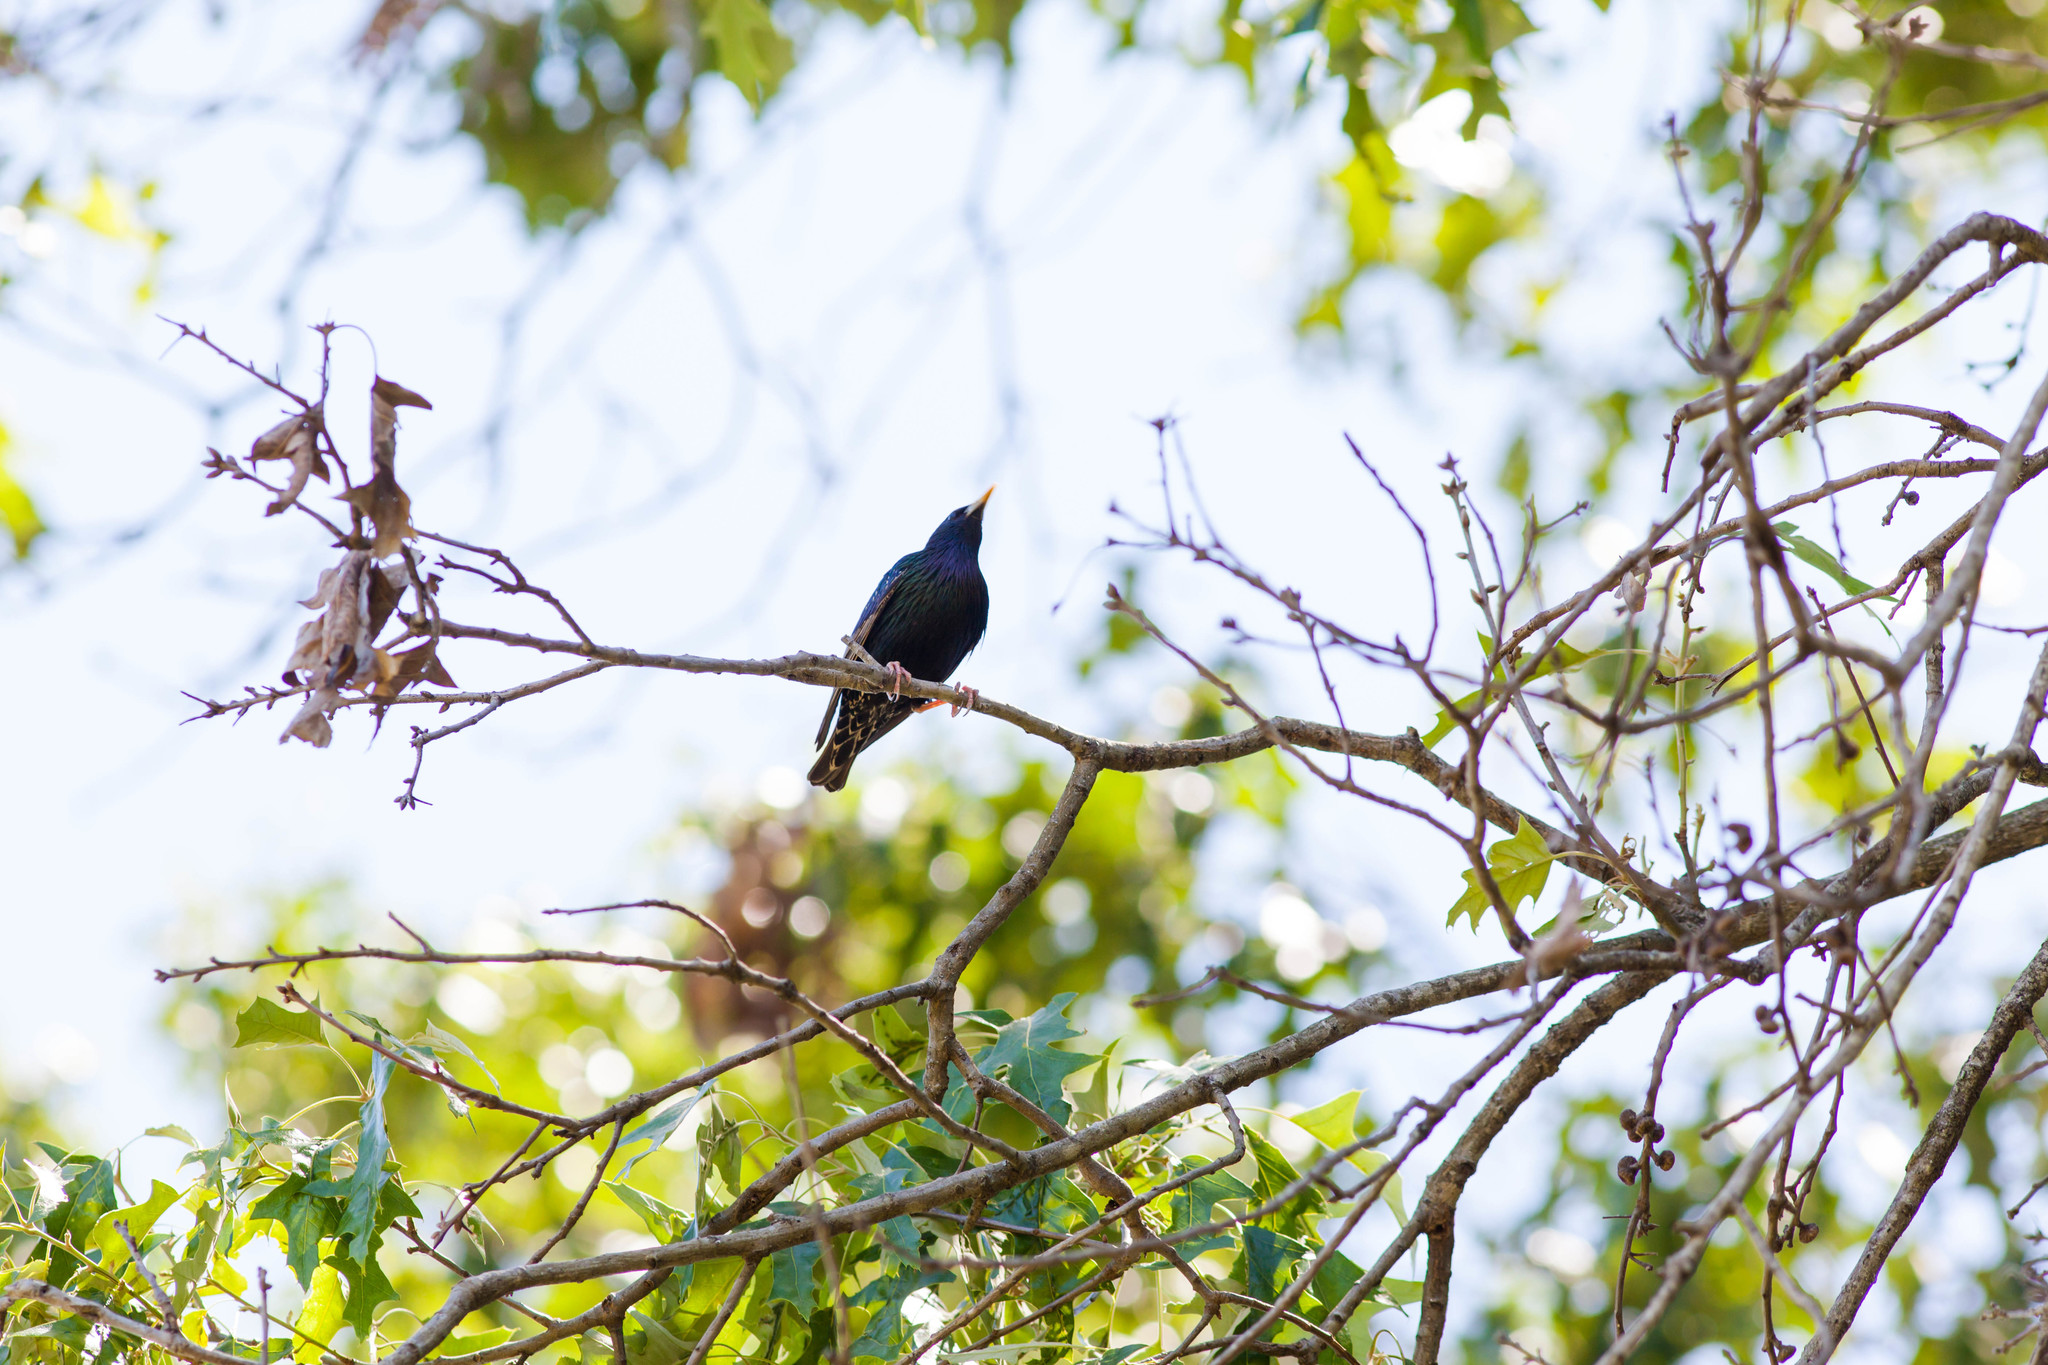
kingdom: Animalia
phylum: Chordata
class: Aves
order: Passeriformes
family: Sturnidae
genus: Sturnus
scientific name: Sturnus vulgaris
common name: Common starling
